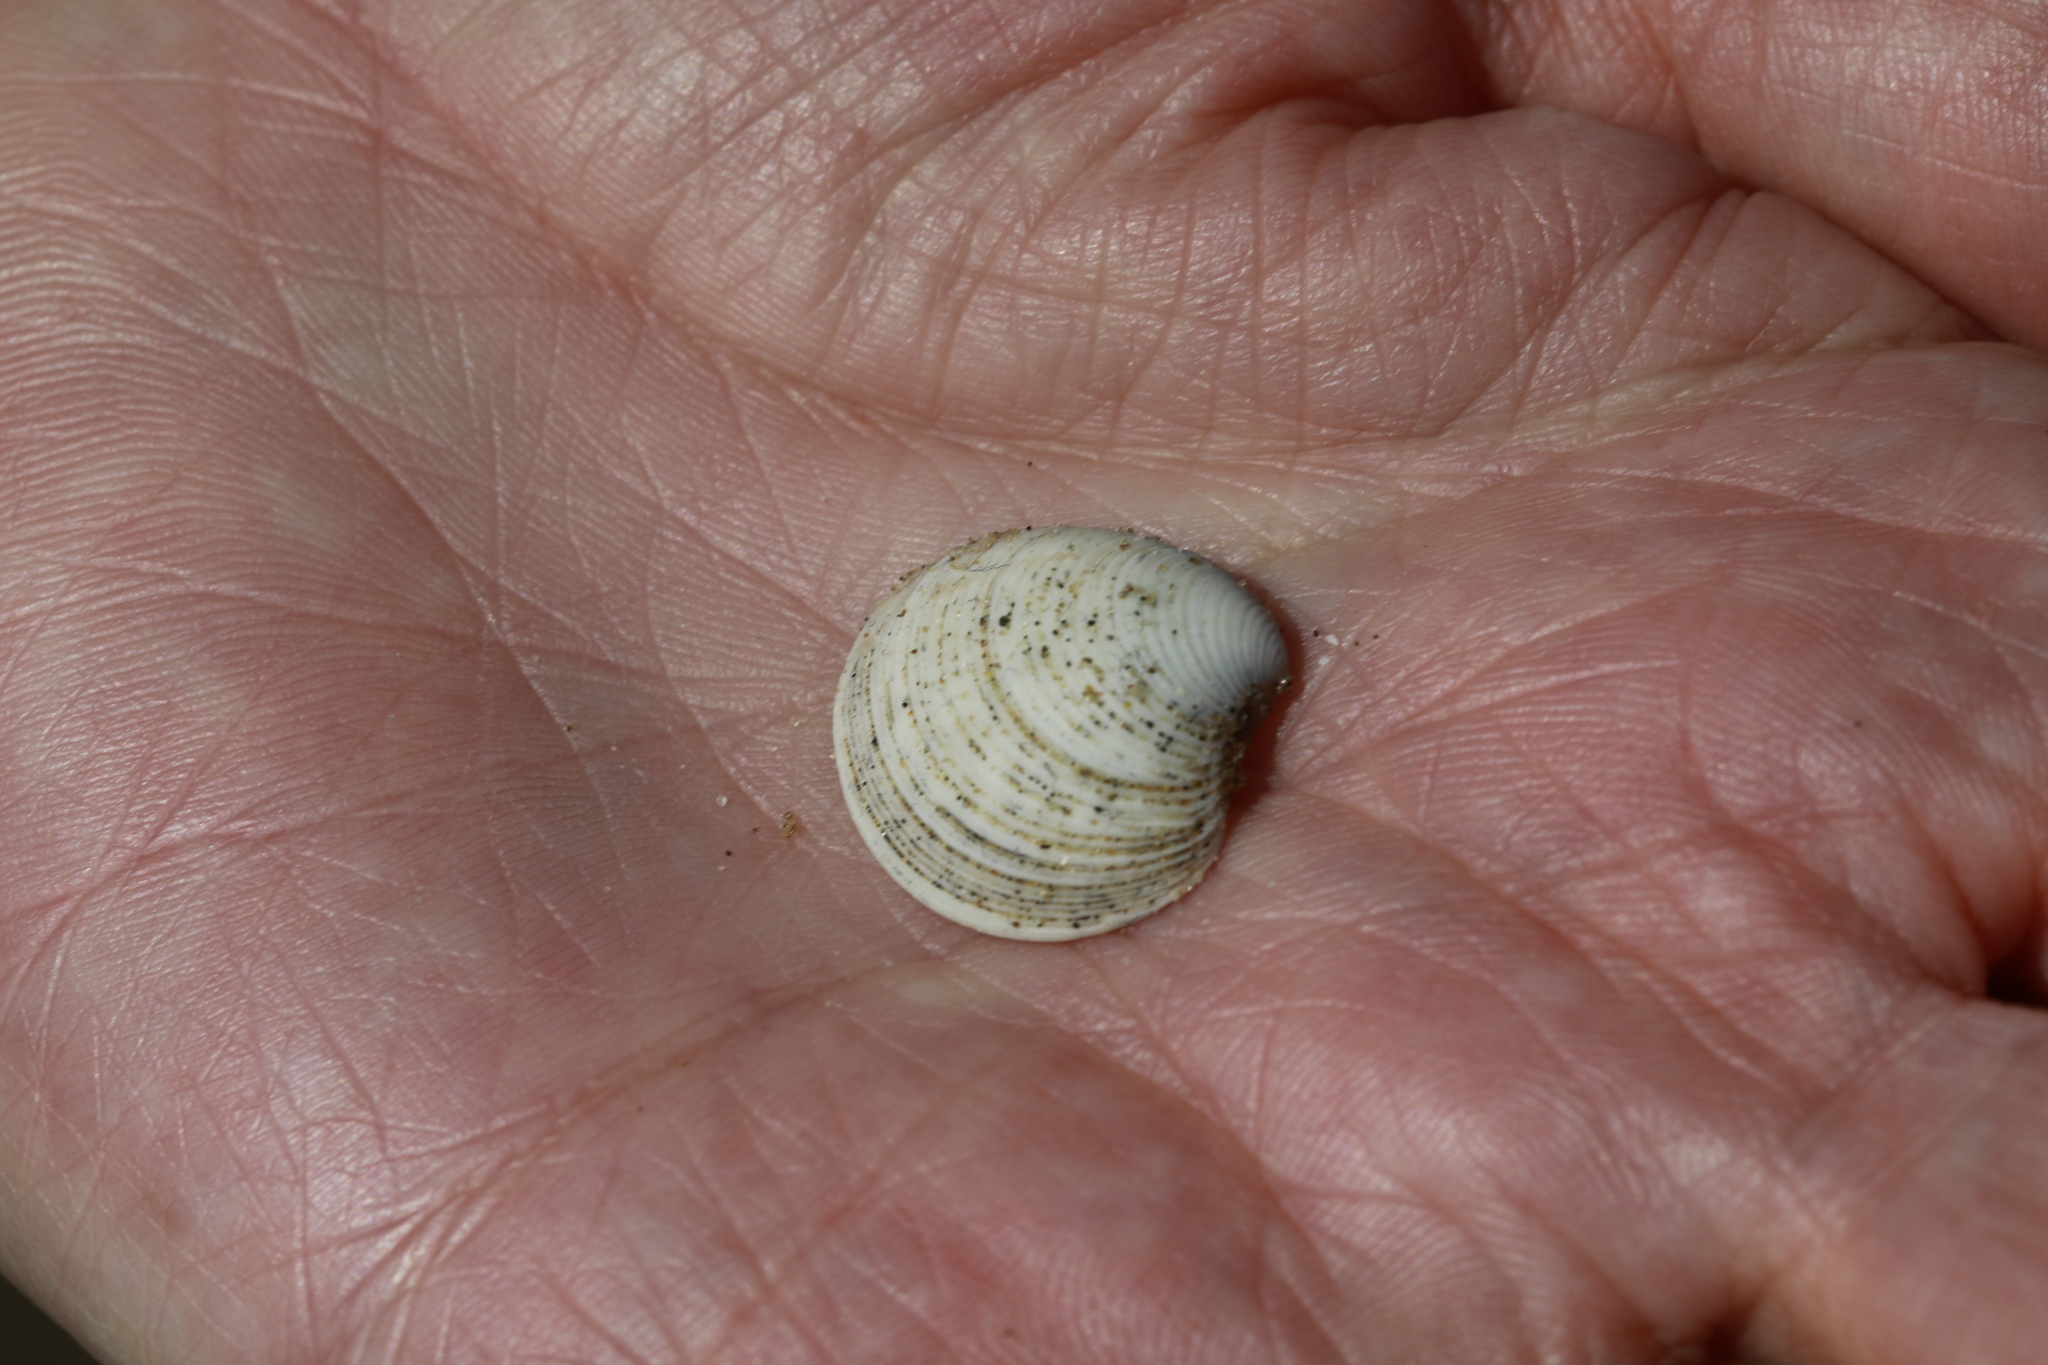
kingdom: Animalia
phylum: Mollusca
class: Bivalvia
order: Venerida
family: Veneridae
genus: Chamelea
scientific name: Chamelea striatula
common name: Striped venus
